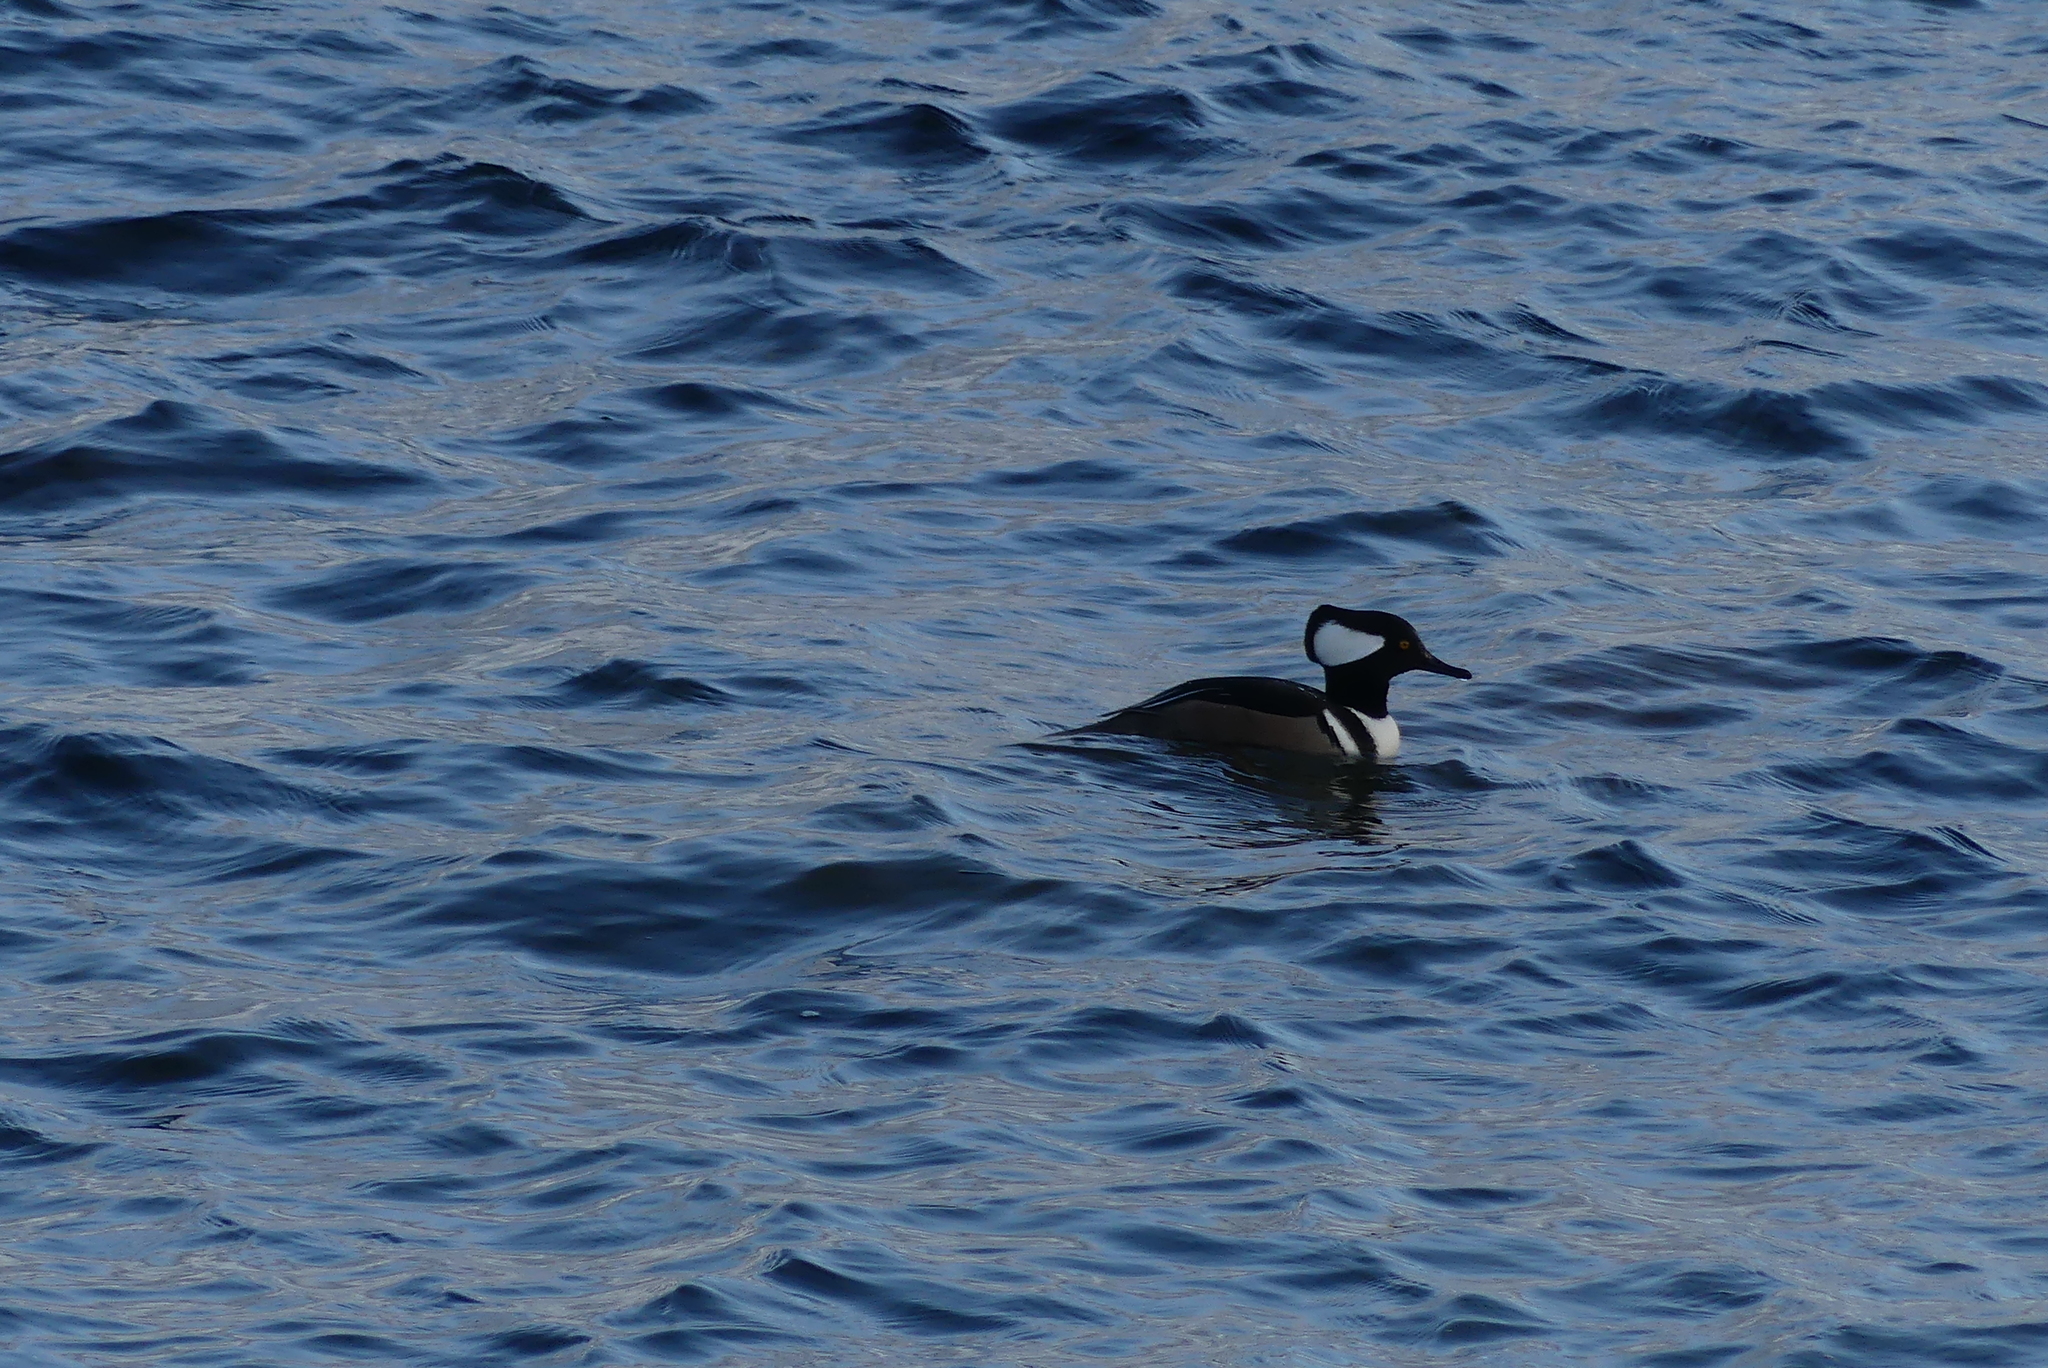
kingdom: Animalia
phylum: Chordata
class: Aves
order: Anseriformes
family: Anatidae
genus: Lophodytes
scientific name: Lophodytes cucullatus
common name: Hooded merganser
